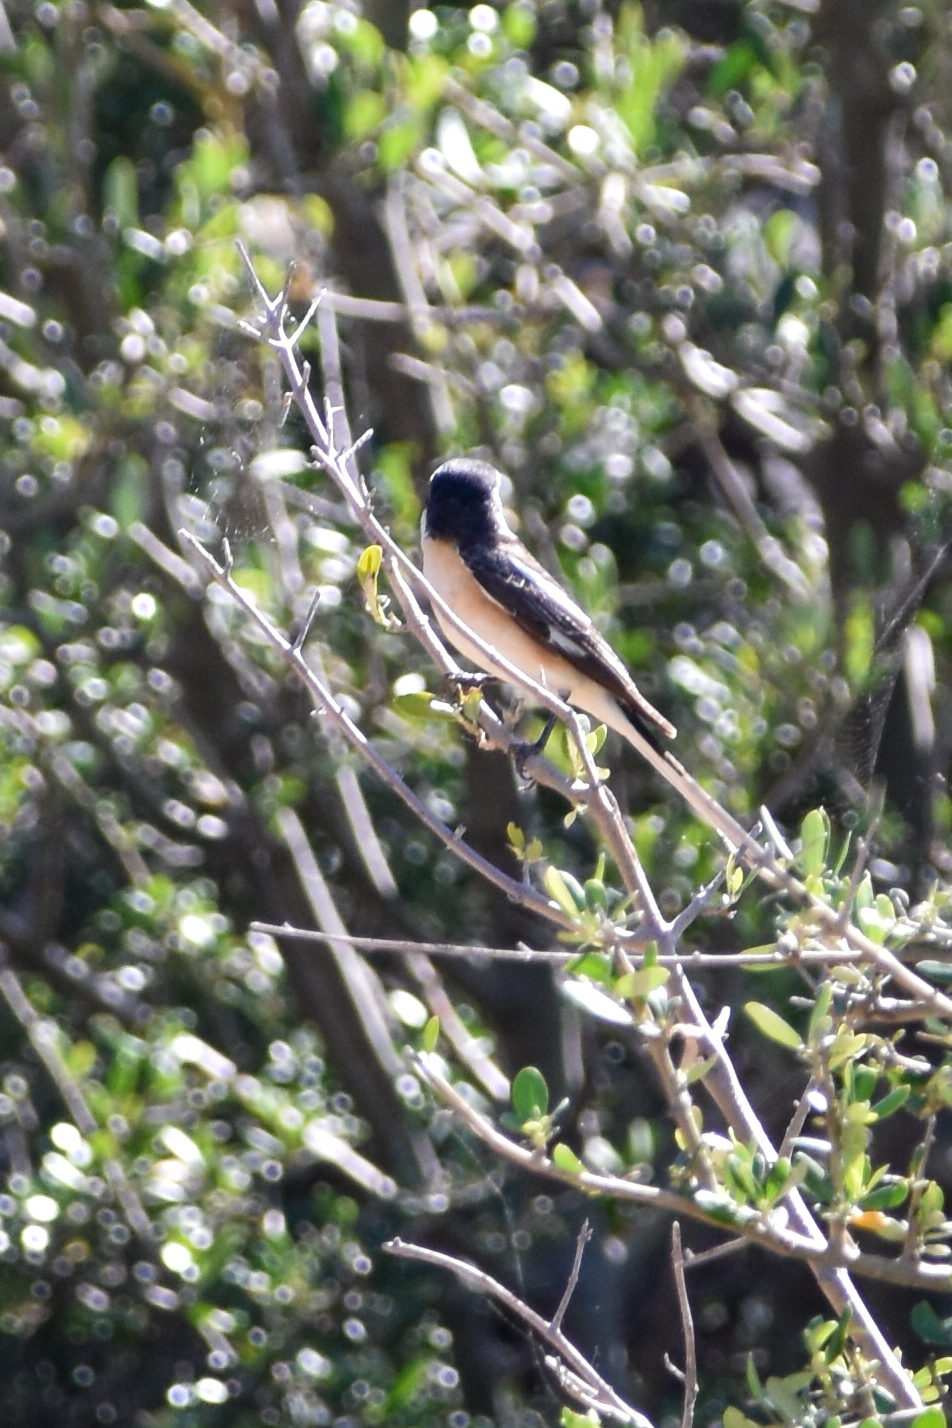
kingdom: Animalia
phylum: Chordata
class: Aves
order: Passeriformes
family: Laniidae
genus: Lanius
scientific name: Lanius nubicus
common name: Masked shrike
